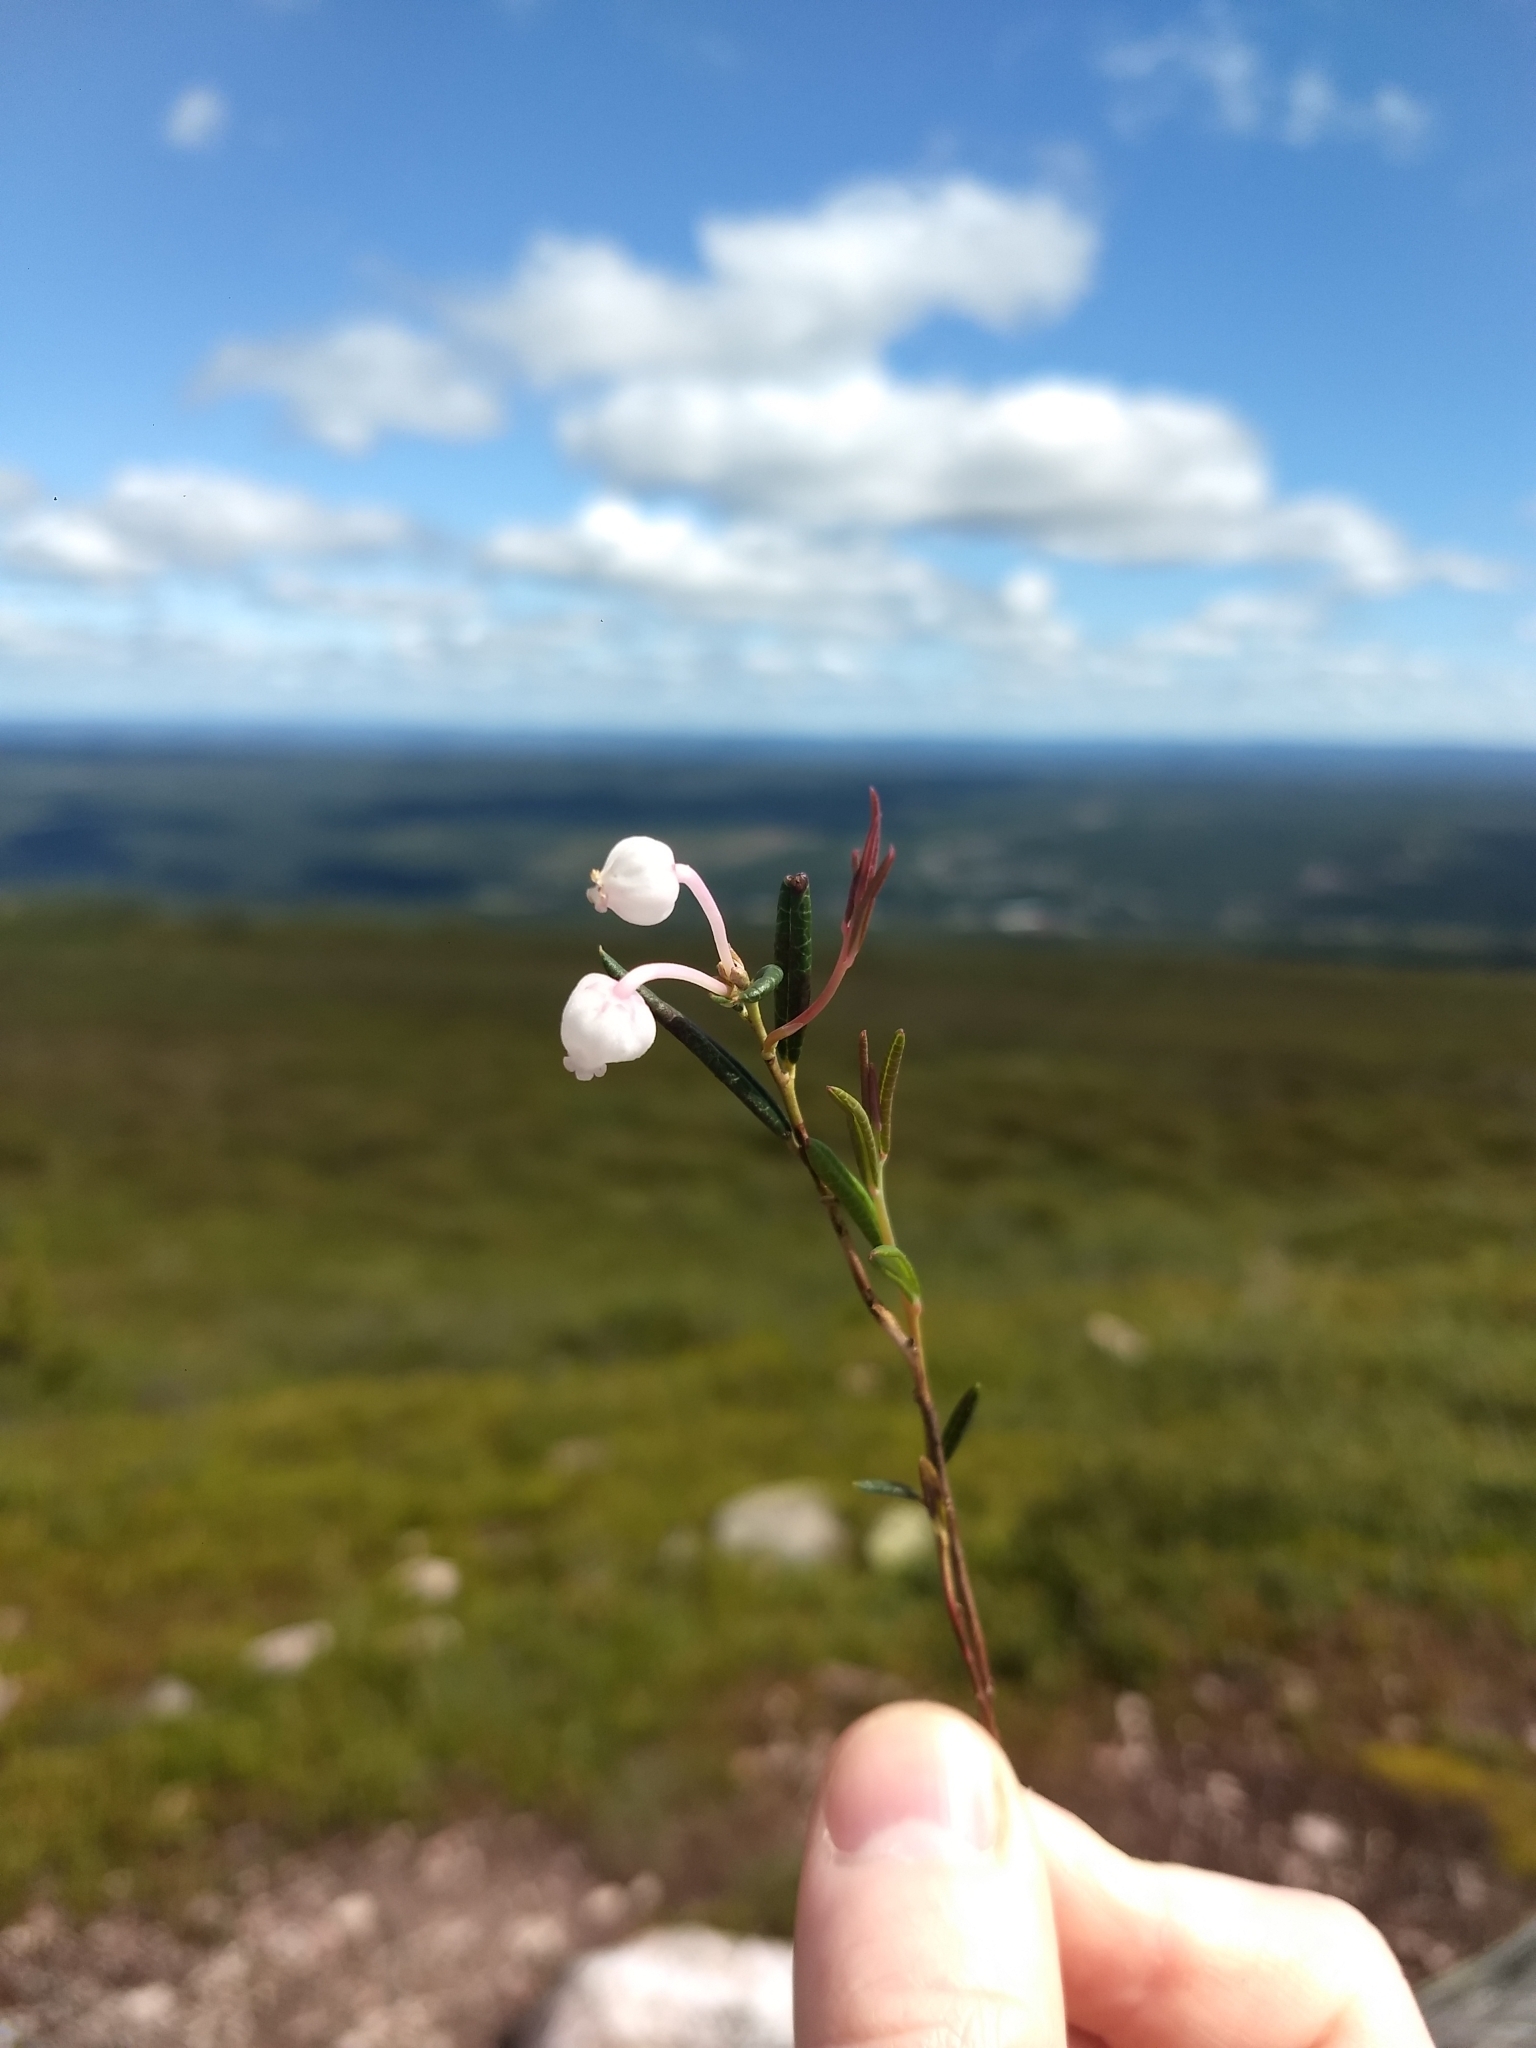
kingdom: Plantae
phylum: Tracheophyta
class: Magnoliopsida
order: Ericales
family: Ericaceae
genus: Andromeda
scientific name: Andromeda polifolia
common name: Bog-rosemary
